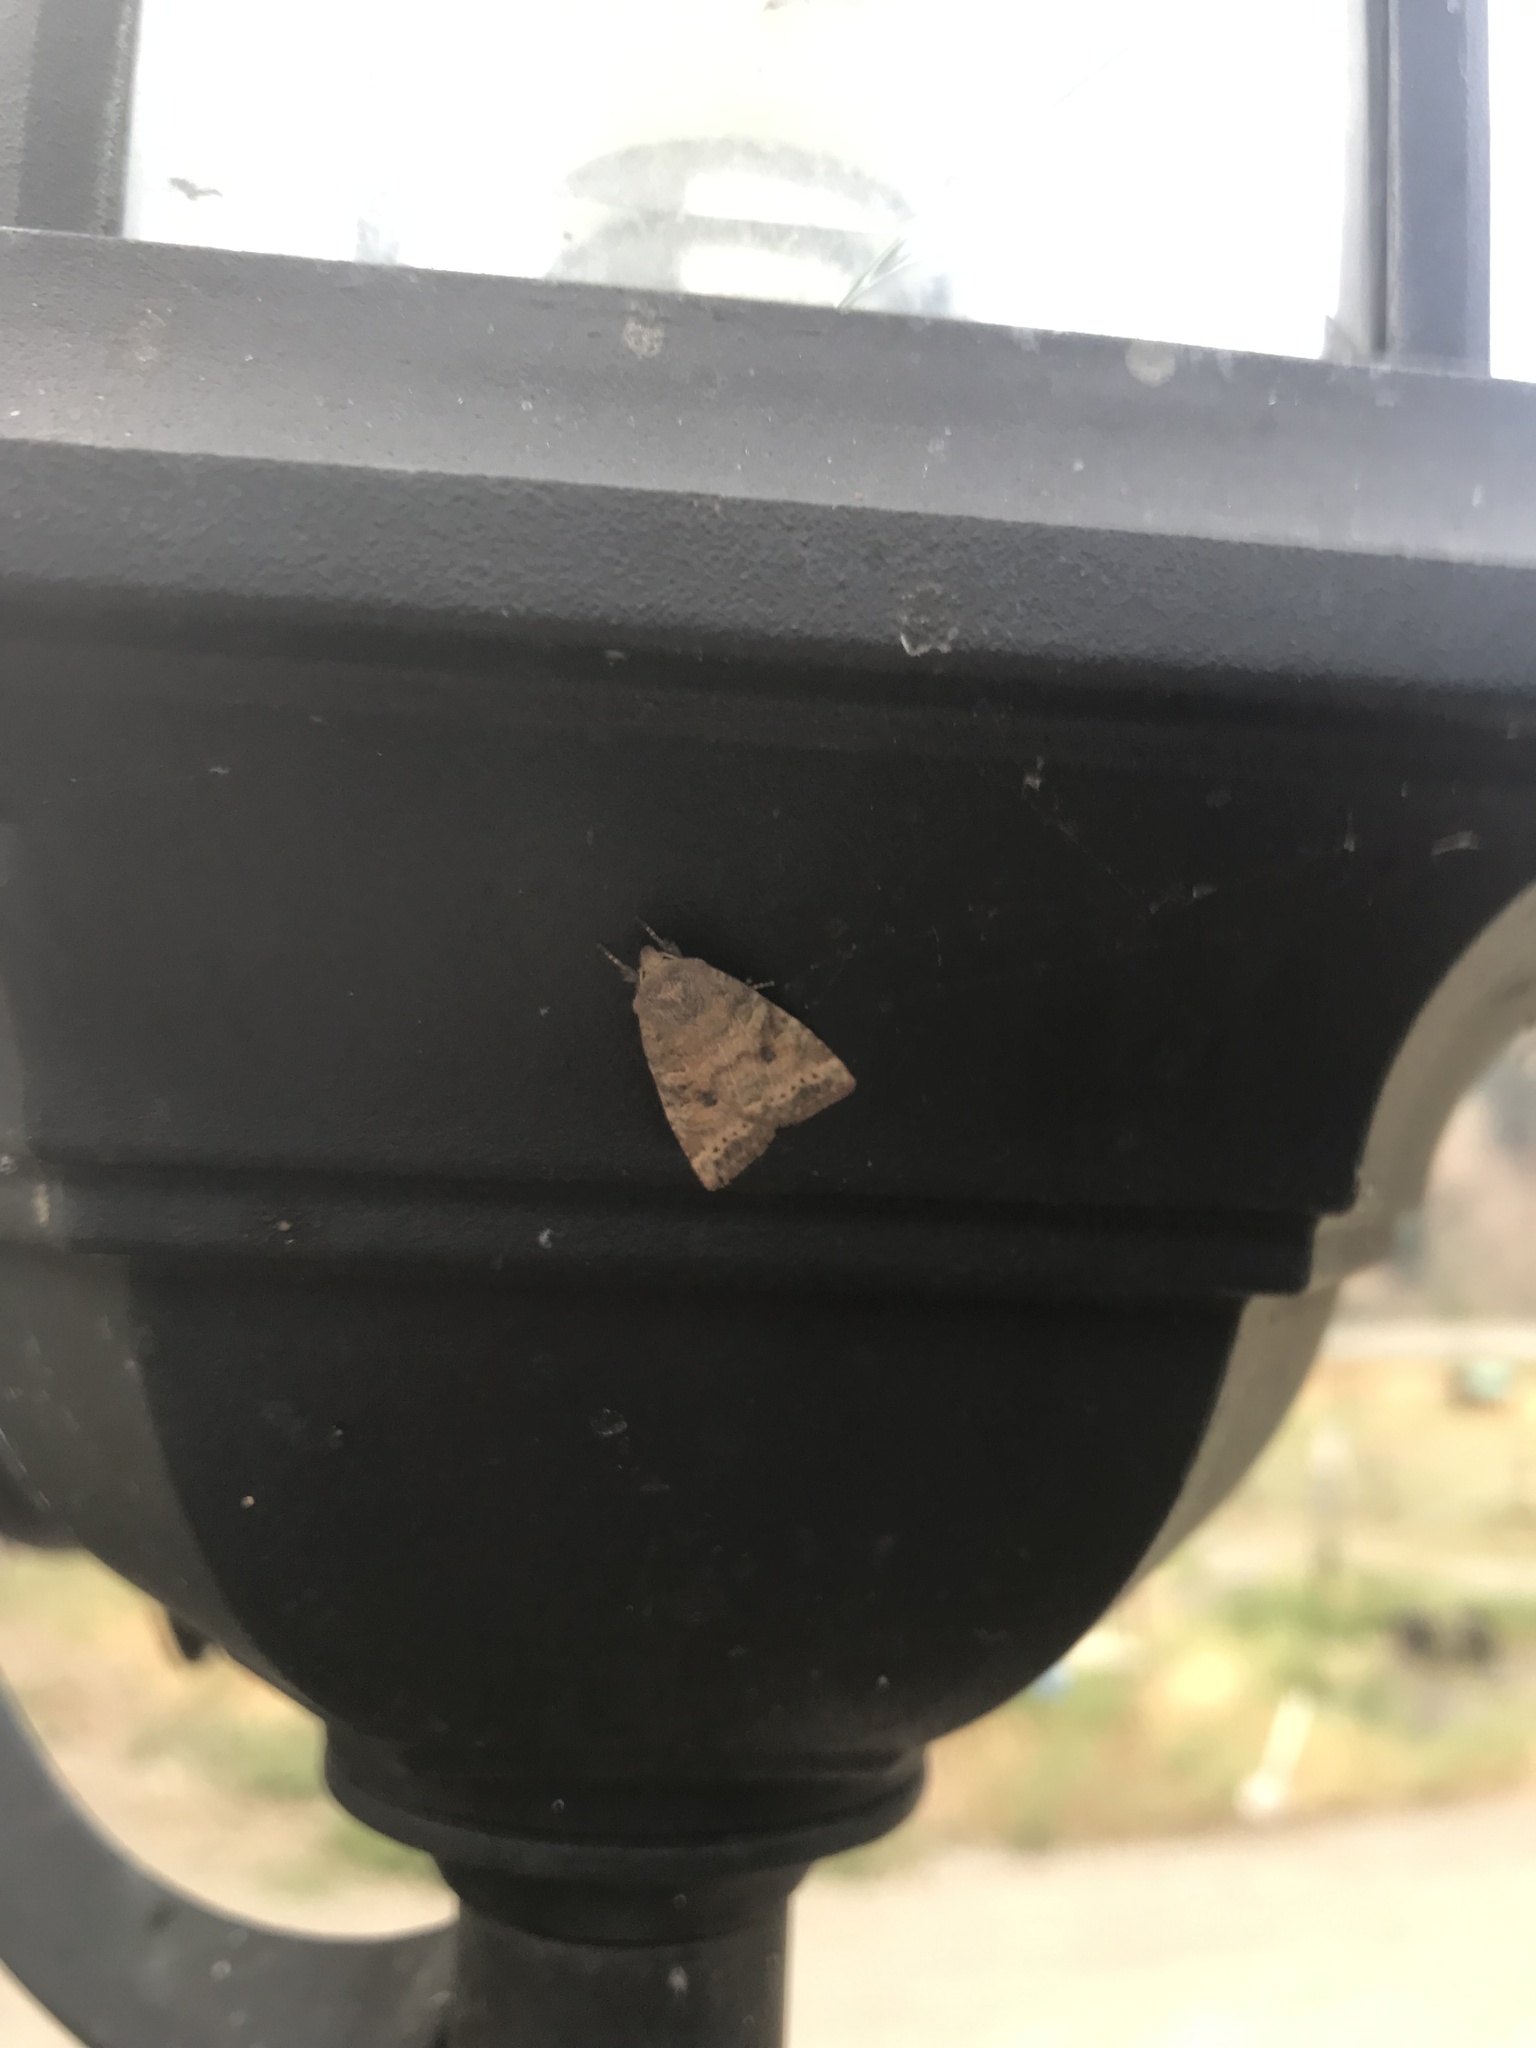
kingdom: Animalia
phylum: Arthropoda
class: Insecta
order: Lepidoptera
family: Noctuidae
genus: Anathix
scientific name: Anathix puta
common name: Puta sallow
